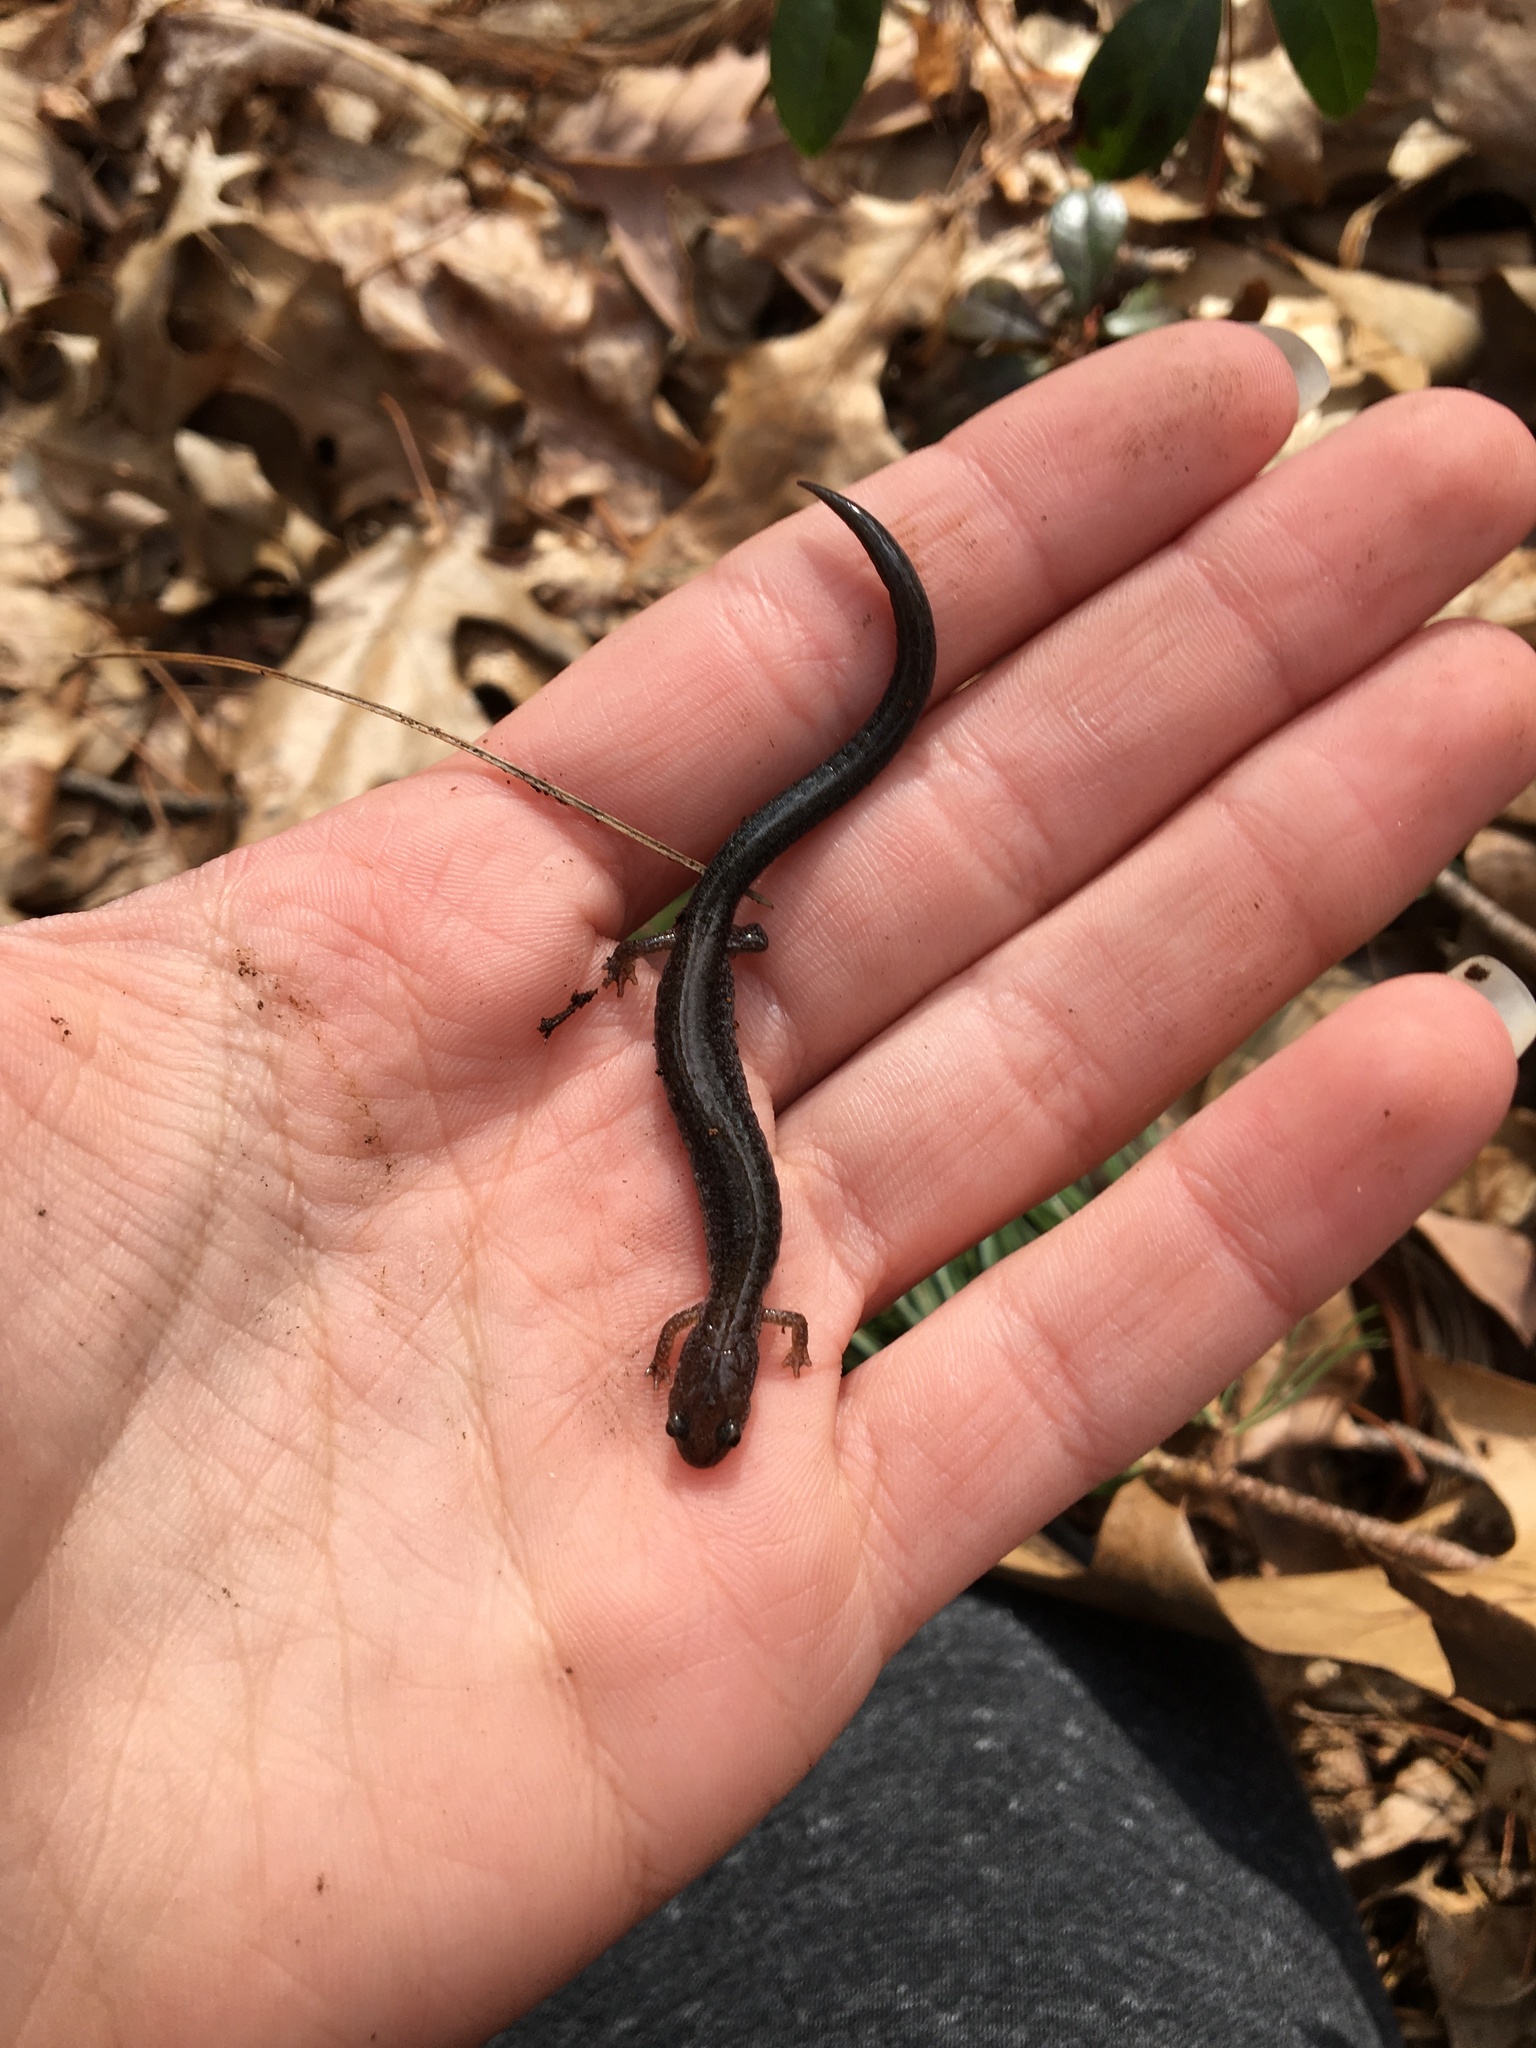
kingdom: Animalia
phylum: Chordata
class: Amphibia
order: Caudata
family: Plethodontidae
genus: Plethodon
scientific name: Plethodon cinereus
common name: Redback salamander
